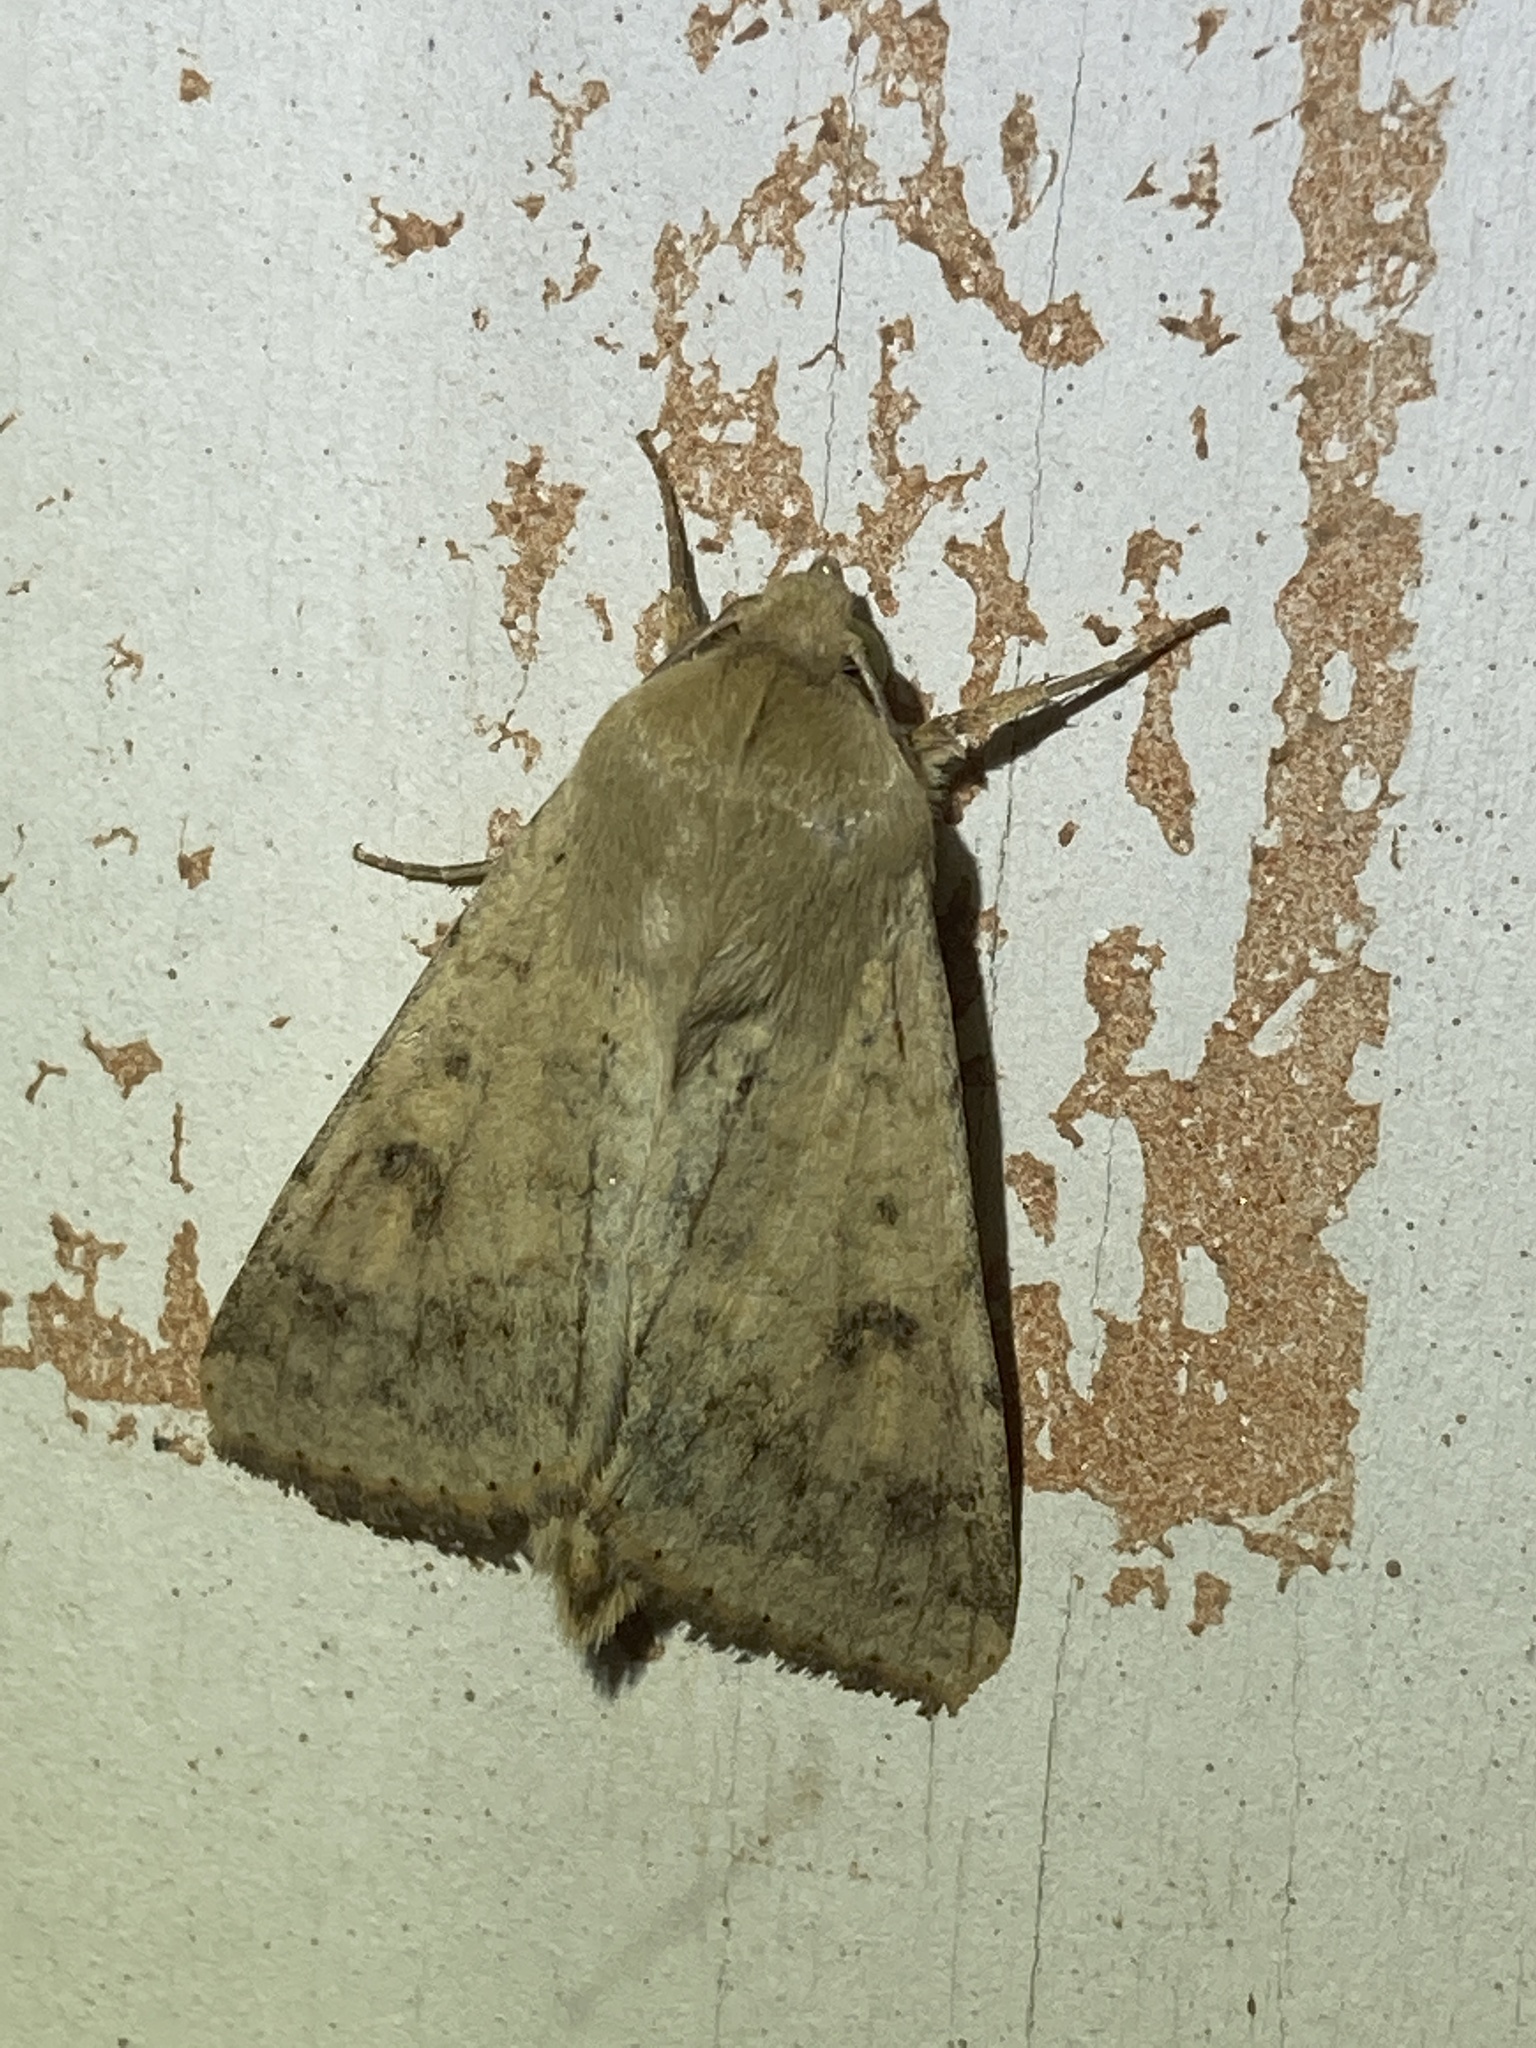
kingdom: Animalia
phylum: Arthropoda
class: Insecta
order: Lepidoptera
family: Noctuidae
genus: Helicoverpa
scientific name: Helicoverpa zea
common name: Bollworm
